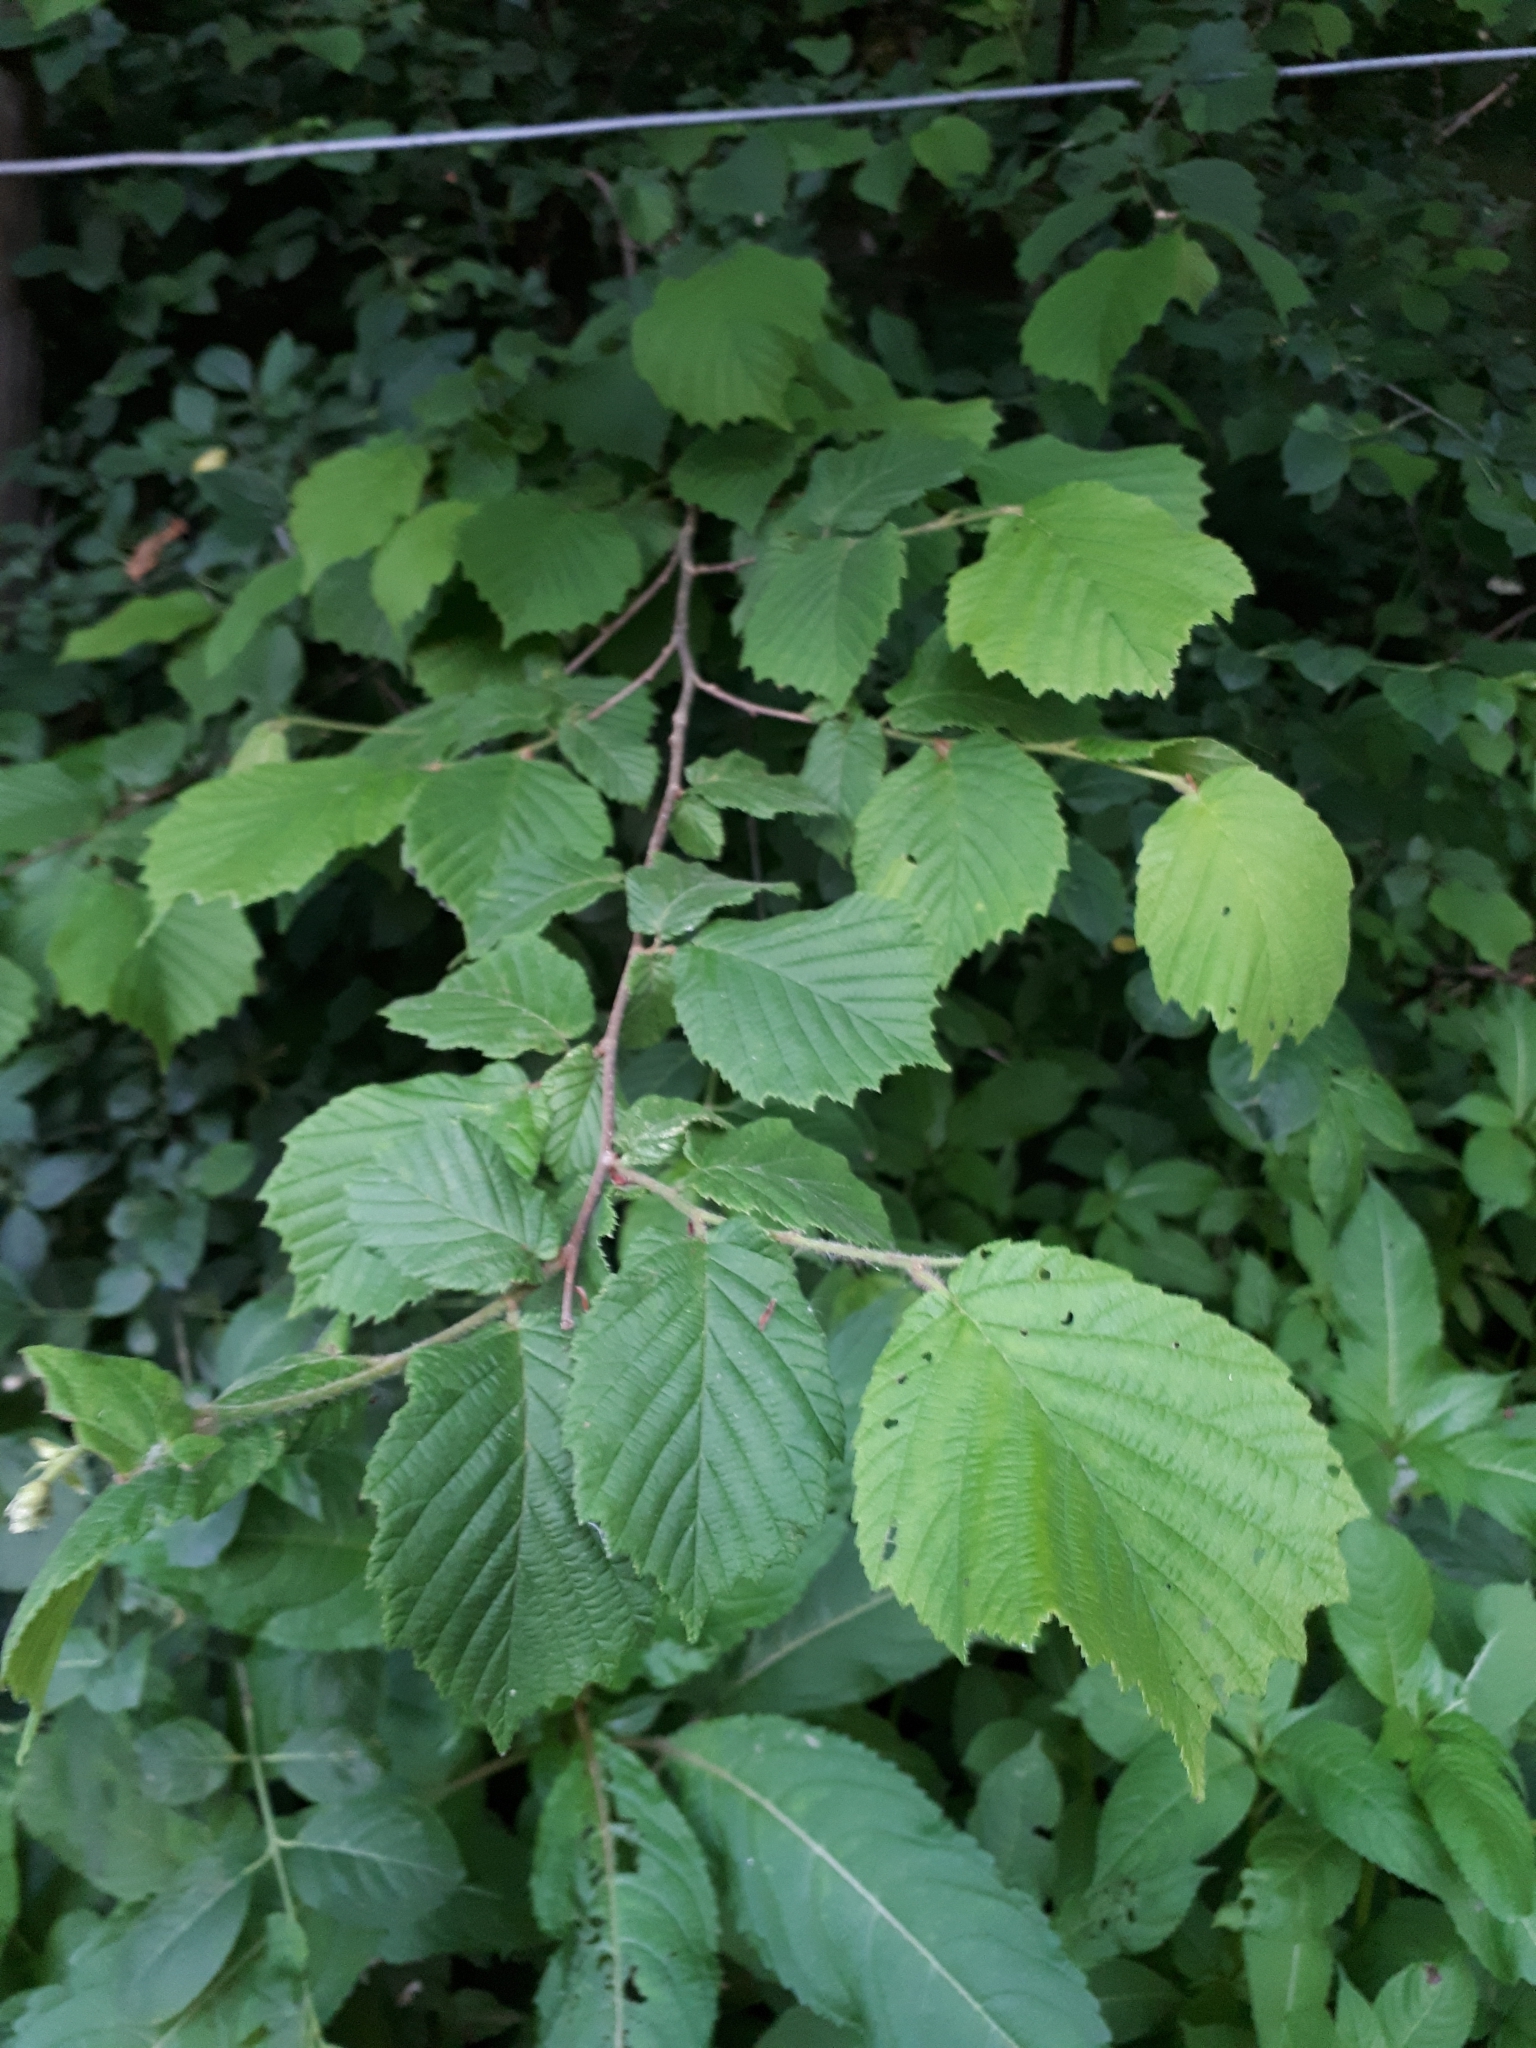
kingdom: Plantae
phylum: Tracheophyta
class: Magnoliopsida
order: Fagales
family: Betulaceae
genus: Corylus
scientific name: Corylus avellana
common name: European hazel
